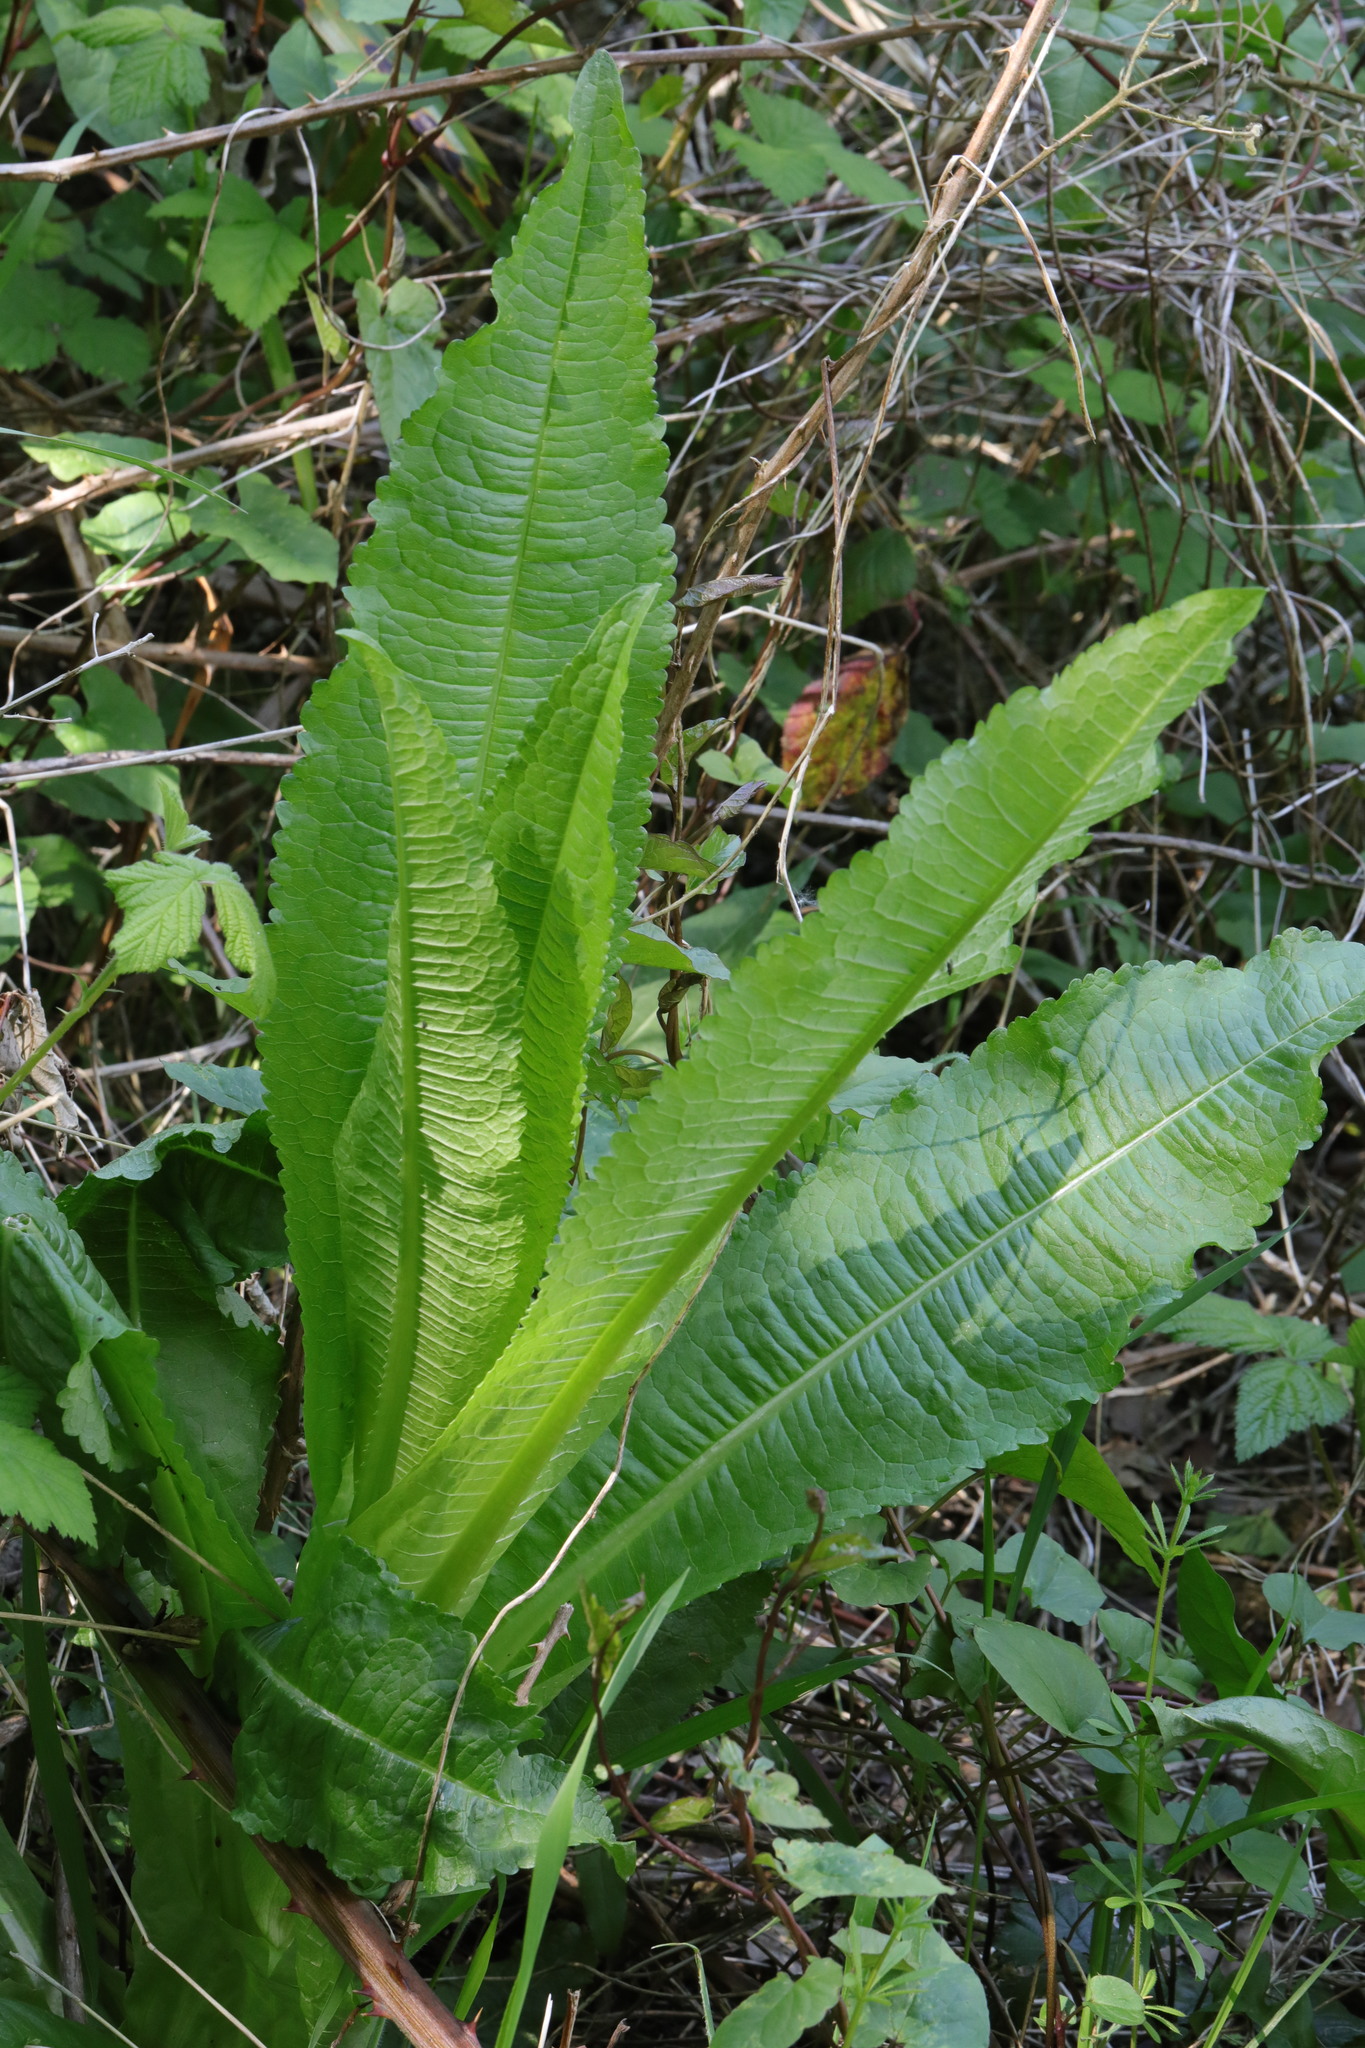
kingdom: Plantae
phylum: Tracheophyta
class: Magnoliopsida
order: Dipsacales
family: Caprifoliaceae
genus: Dipsacus
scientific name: Dipsacus fullonum
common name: Teasel
